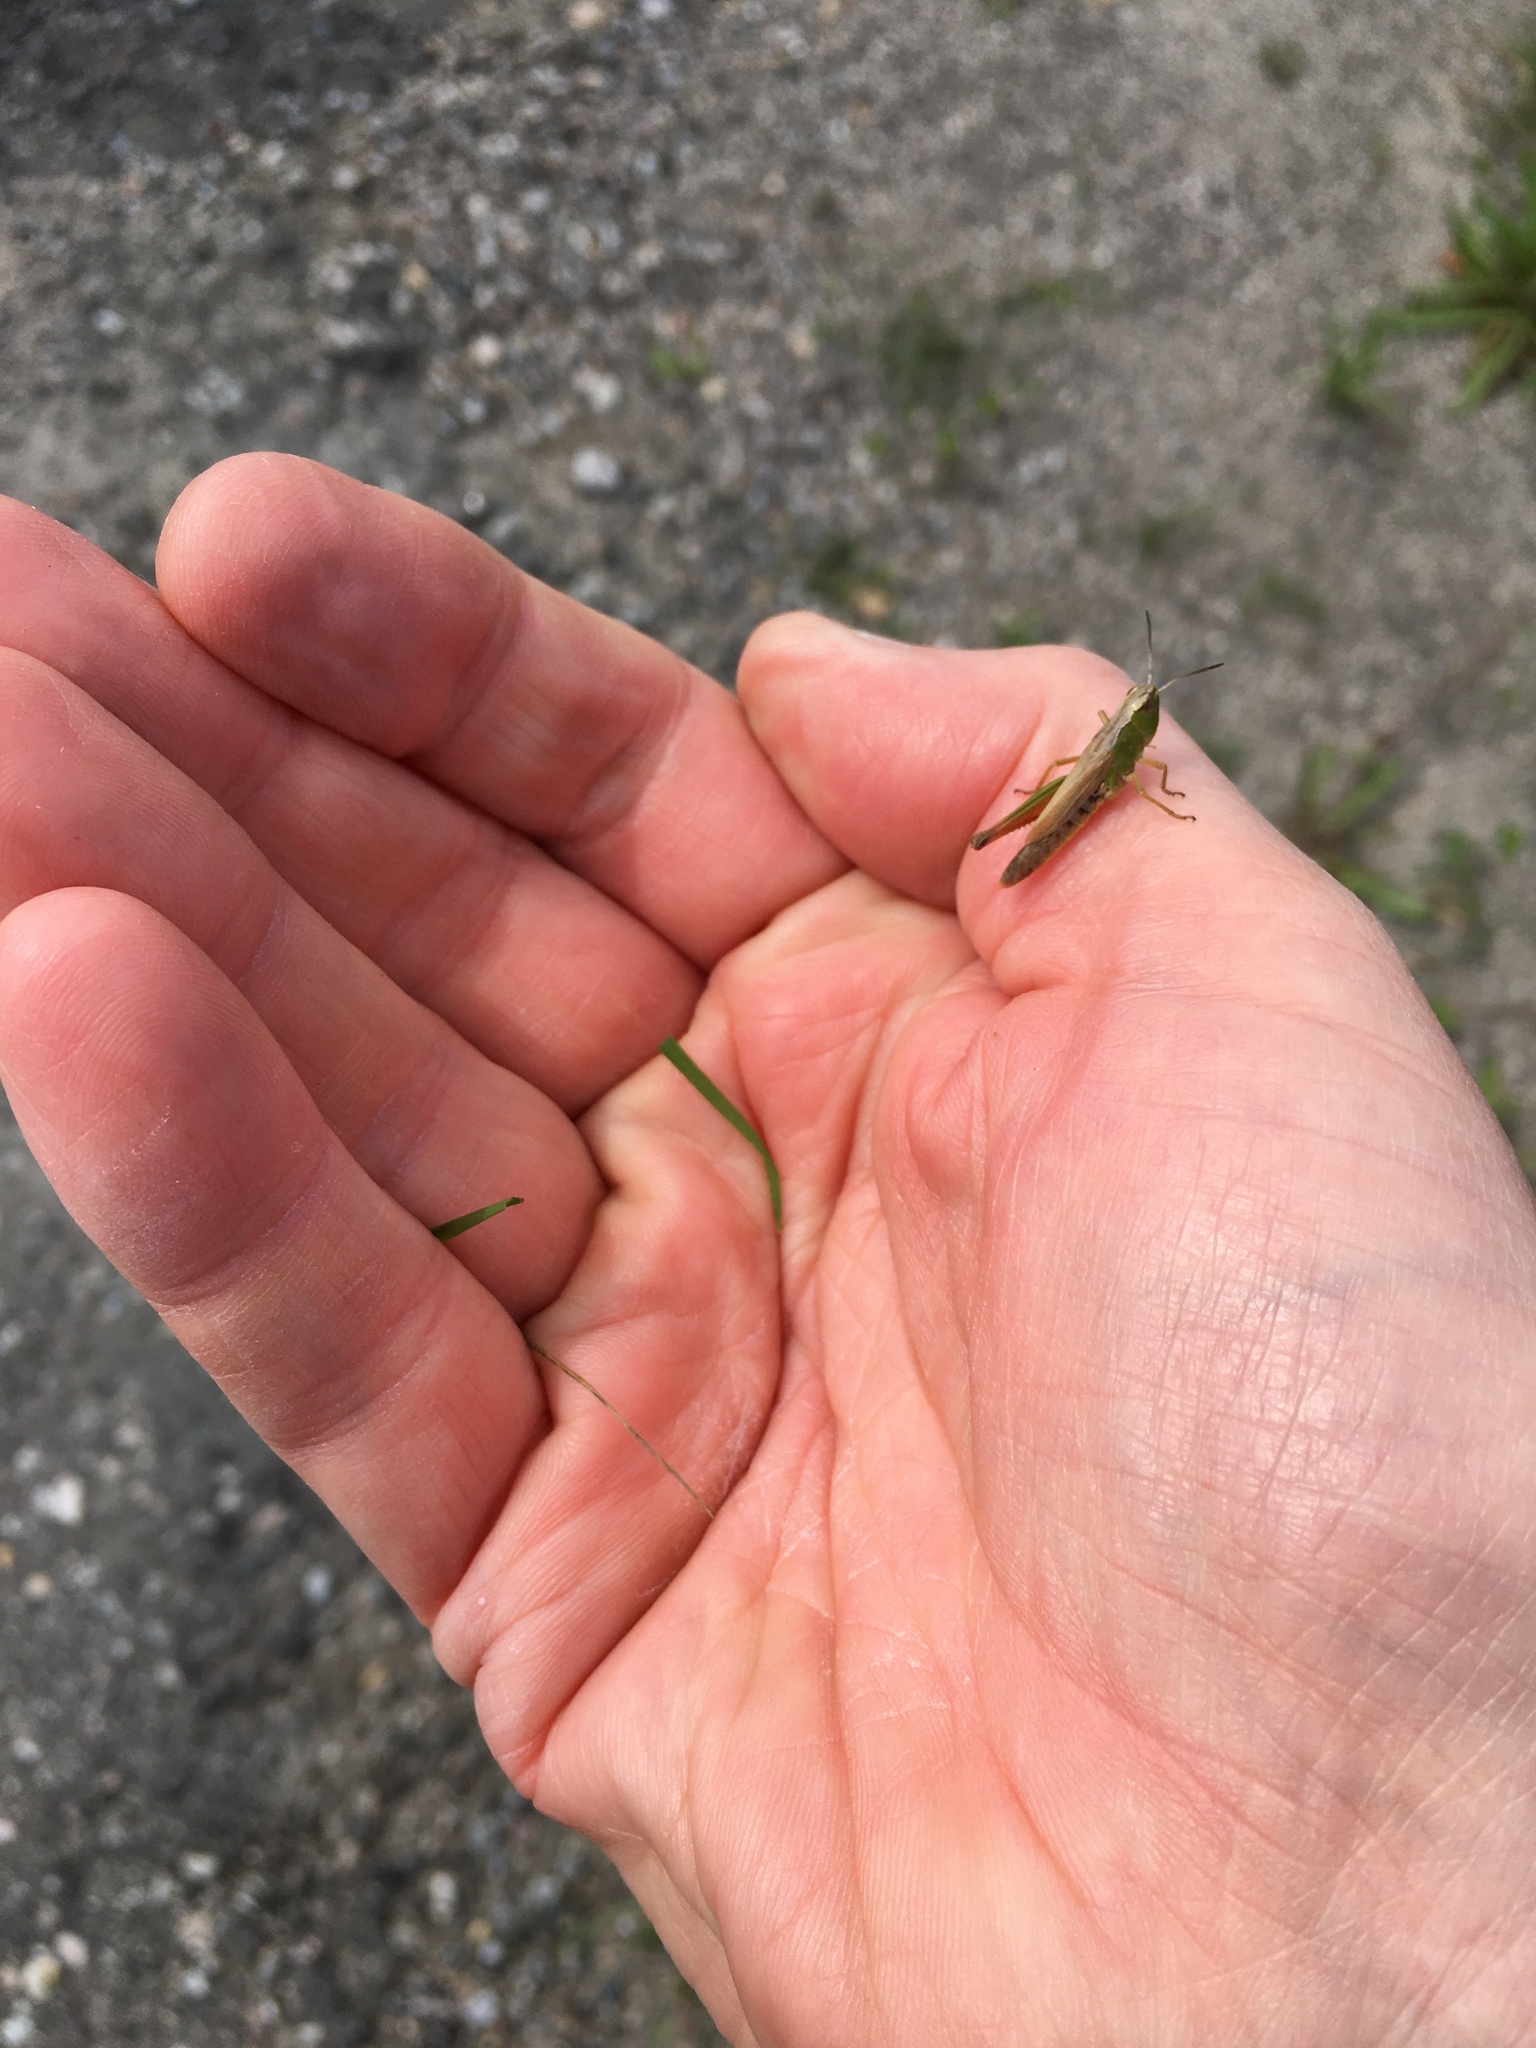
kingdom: Animalia
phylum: Arthropoda
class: Insecta
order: Orthoptera
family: Acrididae
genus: Pseudochorthippus
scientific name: Pseudochorthippus curtipennis
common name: Marsh meadow grasshopper
